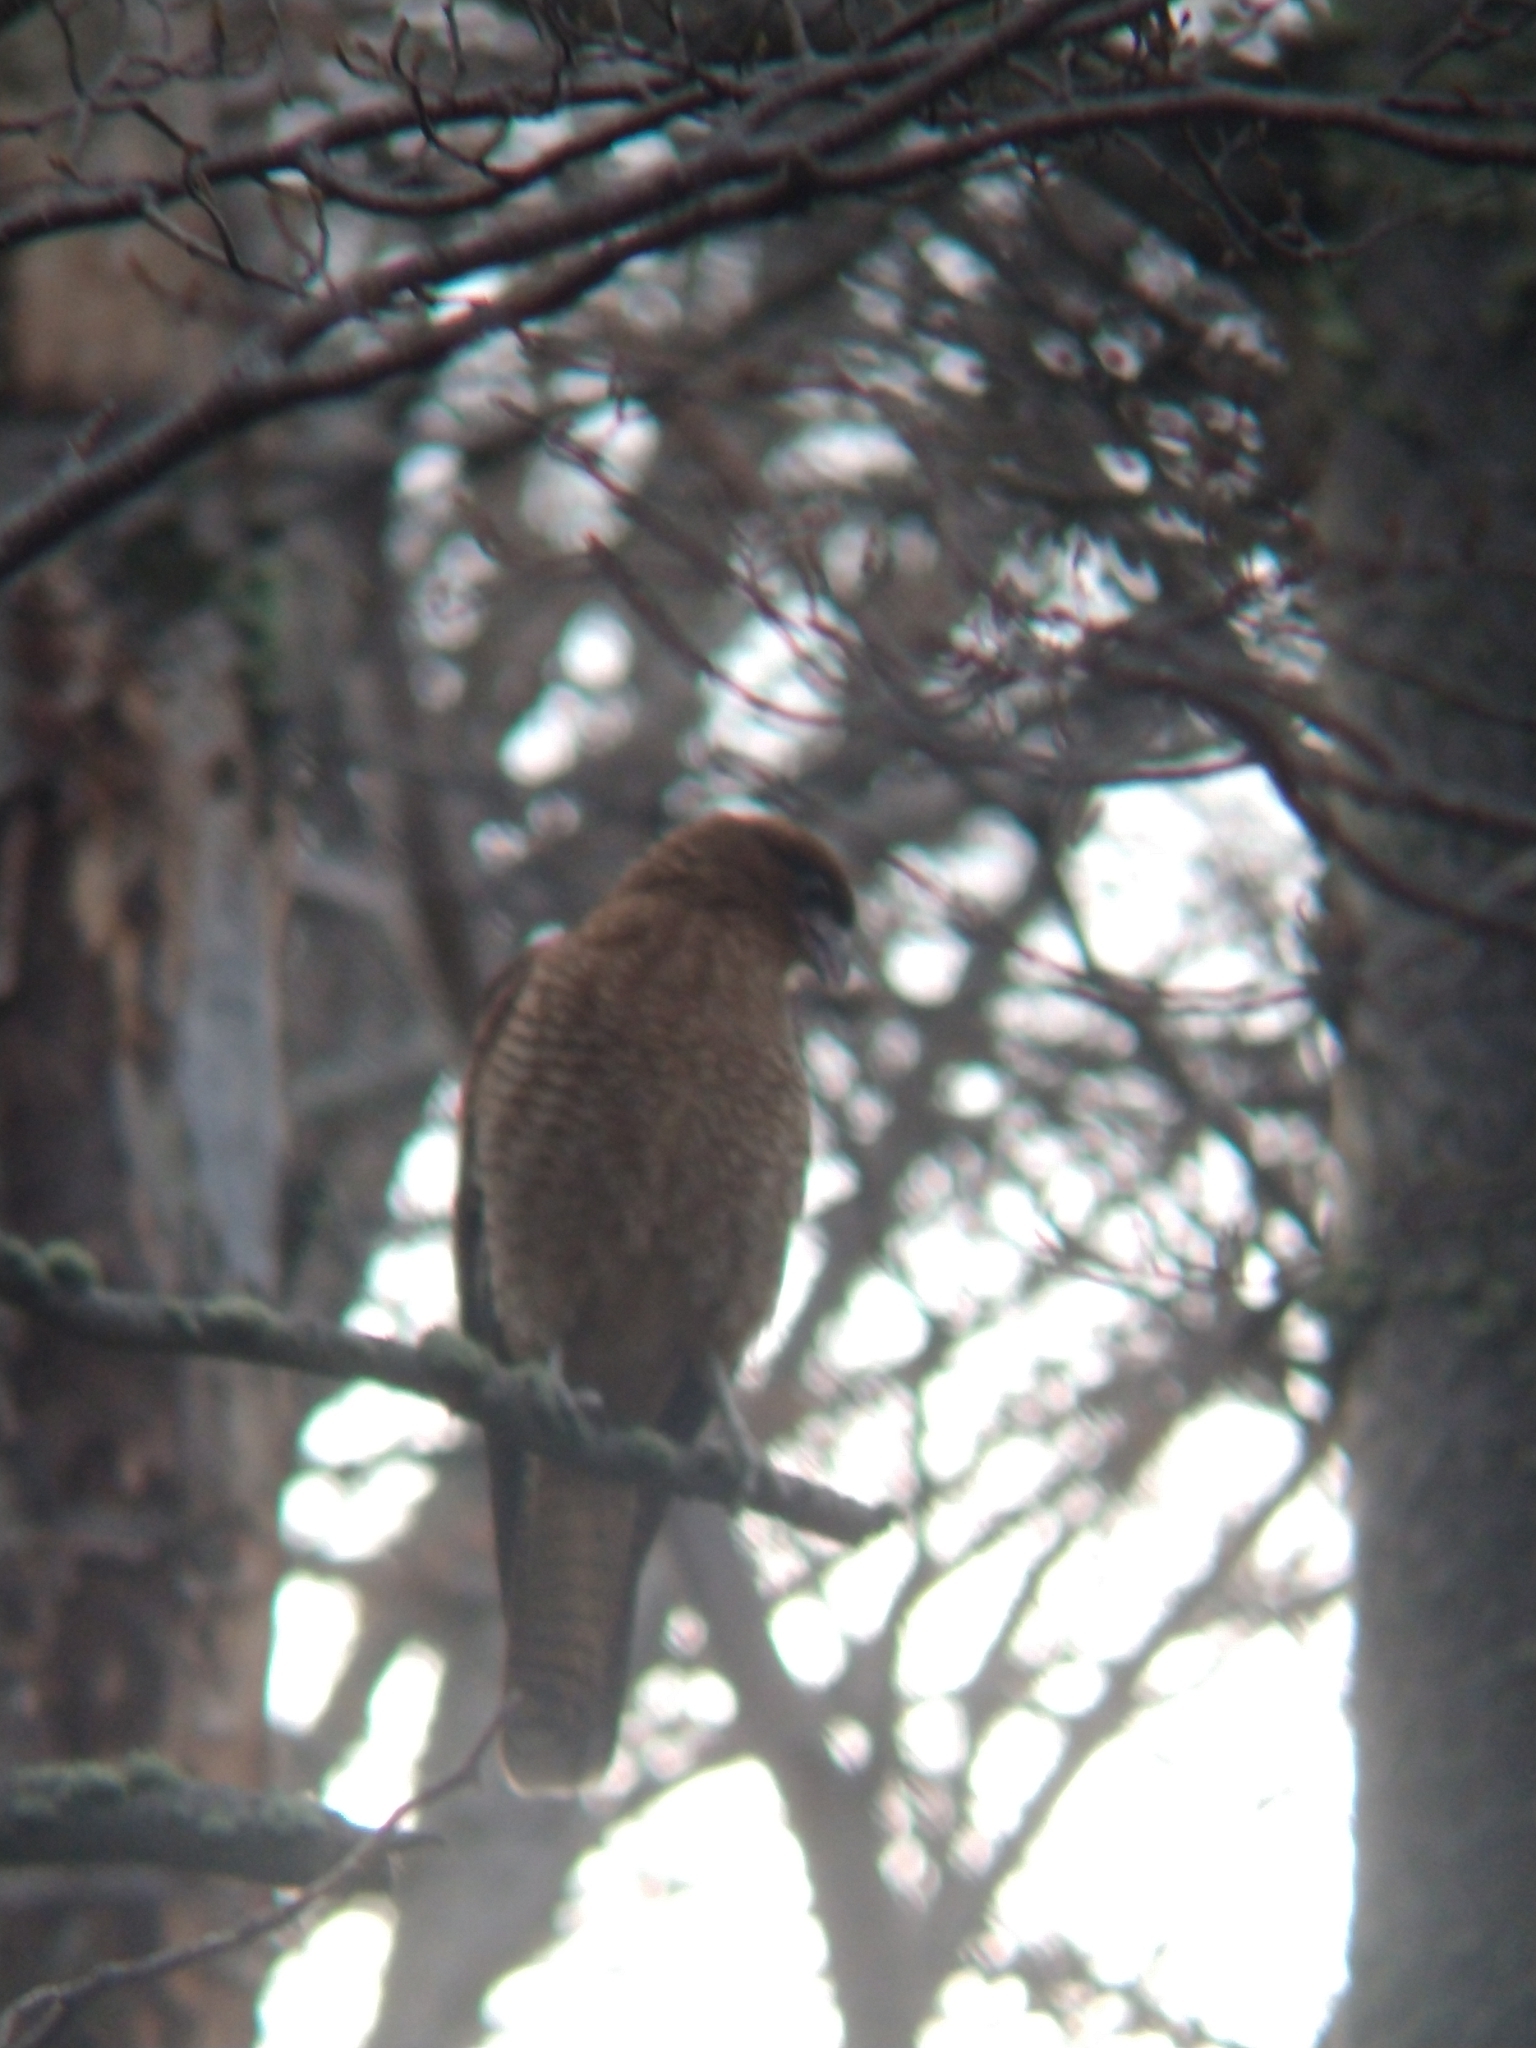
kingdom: Animalia
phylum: Chordata
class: Aves
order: Falconiformes
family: Falconidae
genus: Daptrius
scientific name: Daptrius
